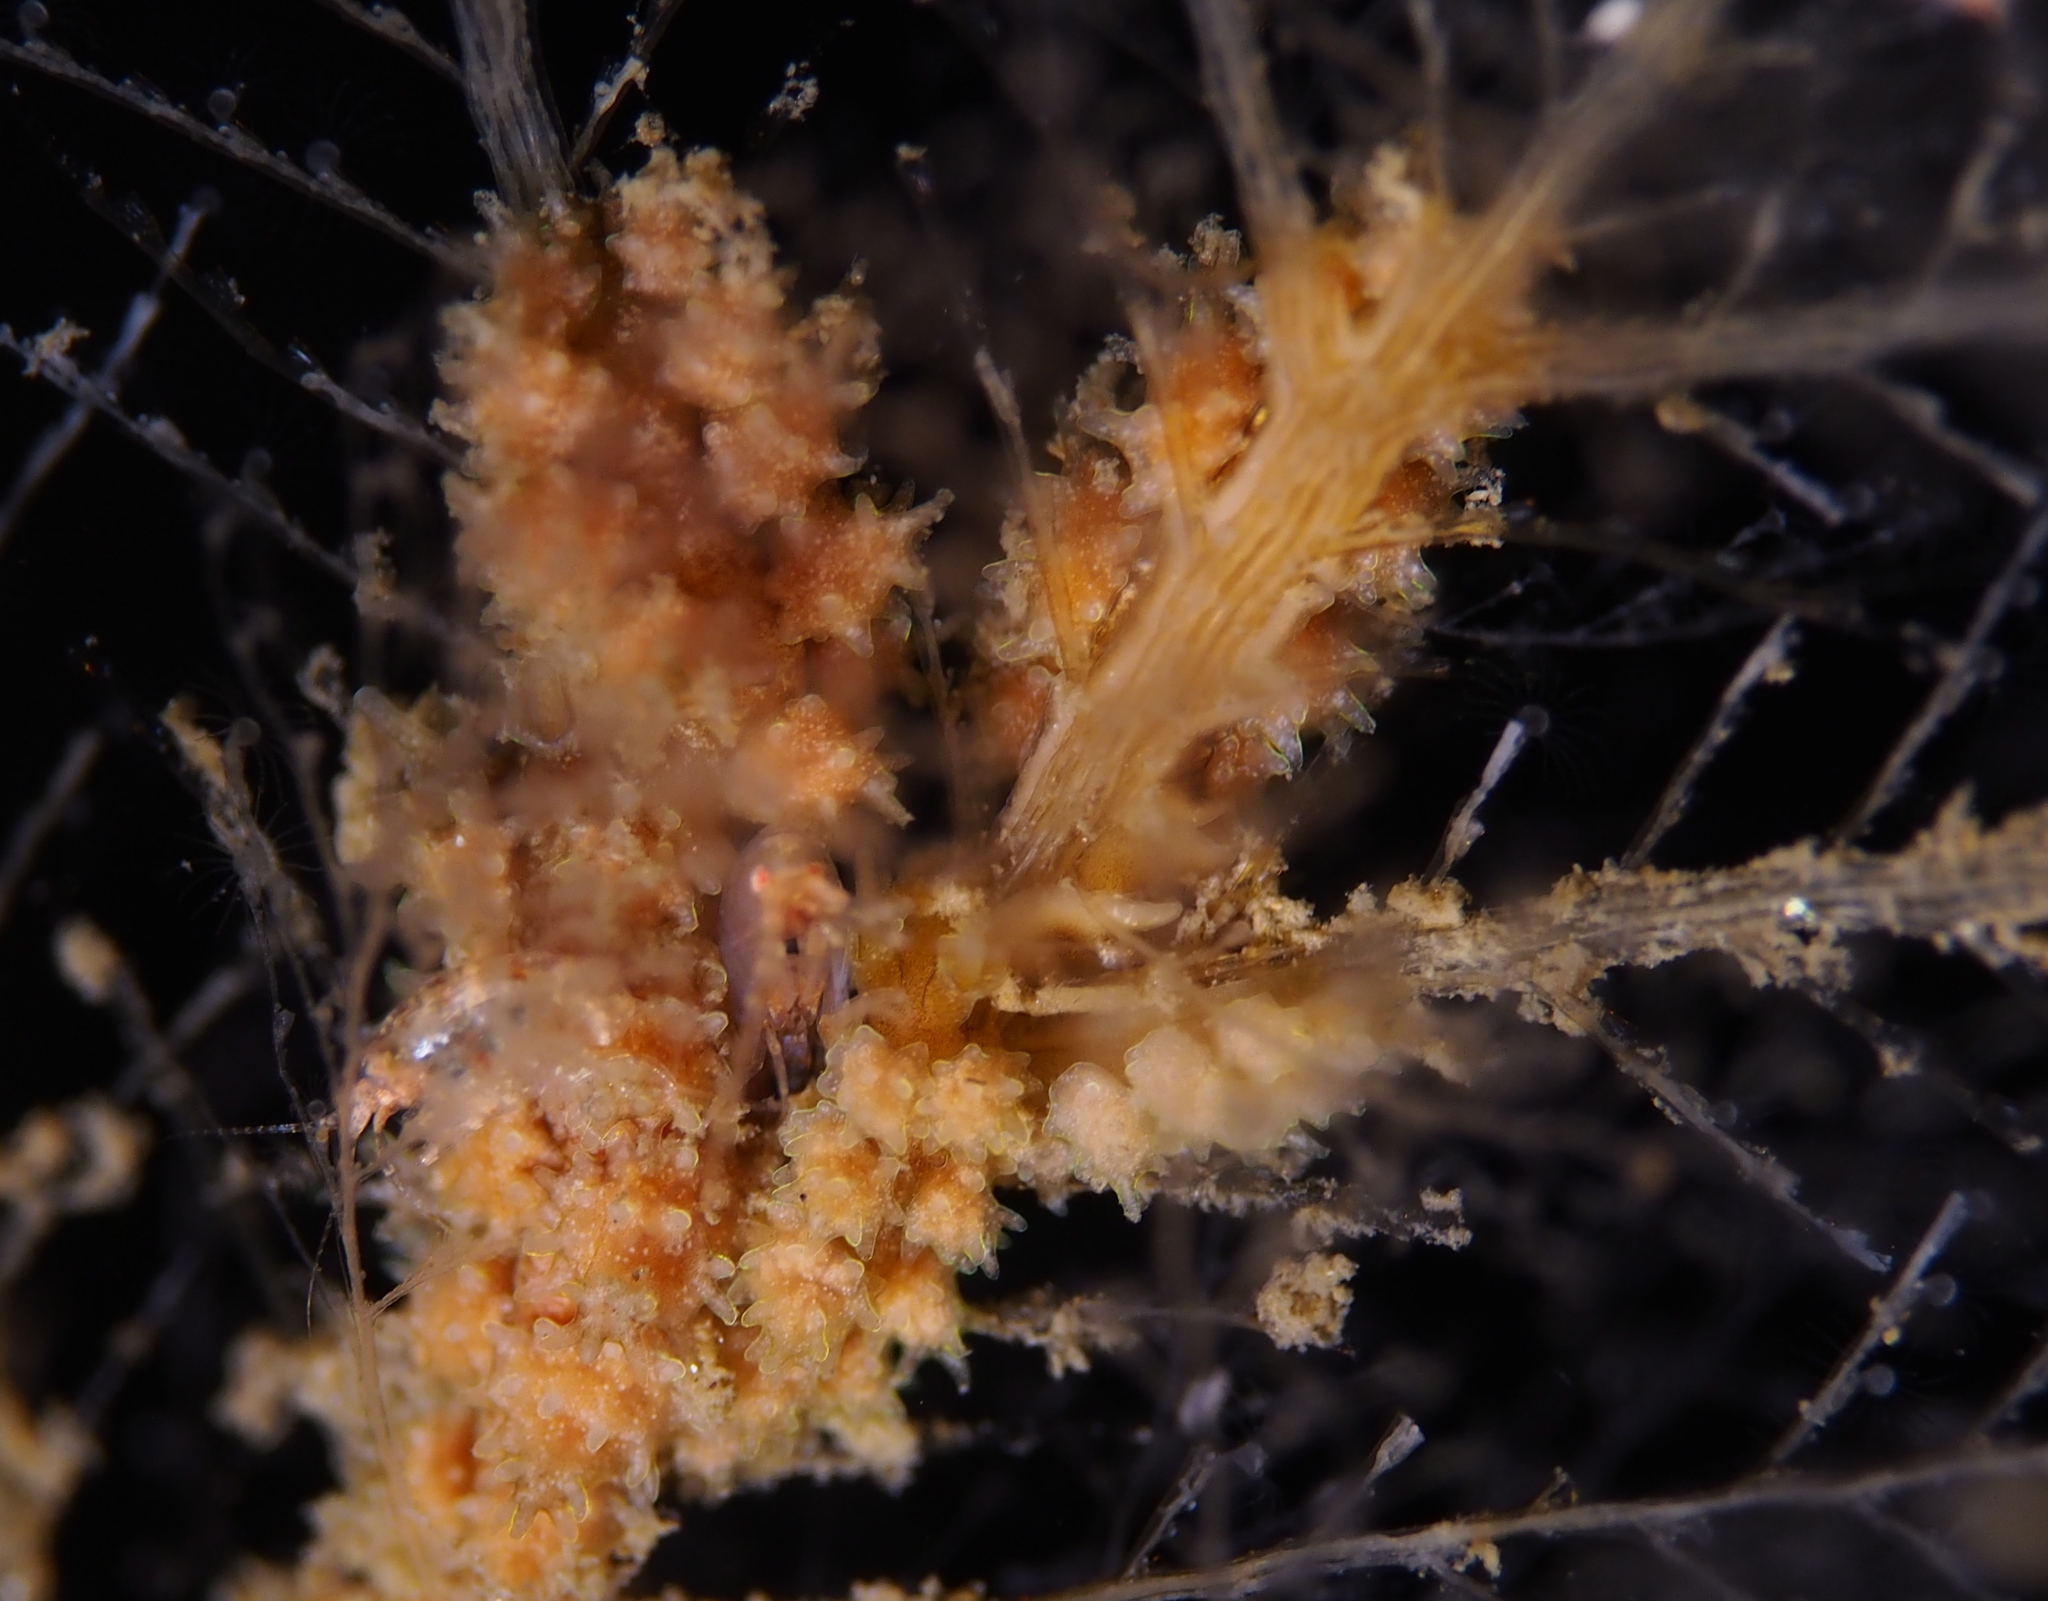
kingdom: Animalia
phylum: Mollusca
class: Gastropoda
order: Nudibranchia
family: Dotidae
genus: Doto
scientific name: Doto hystrix
